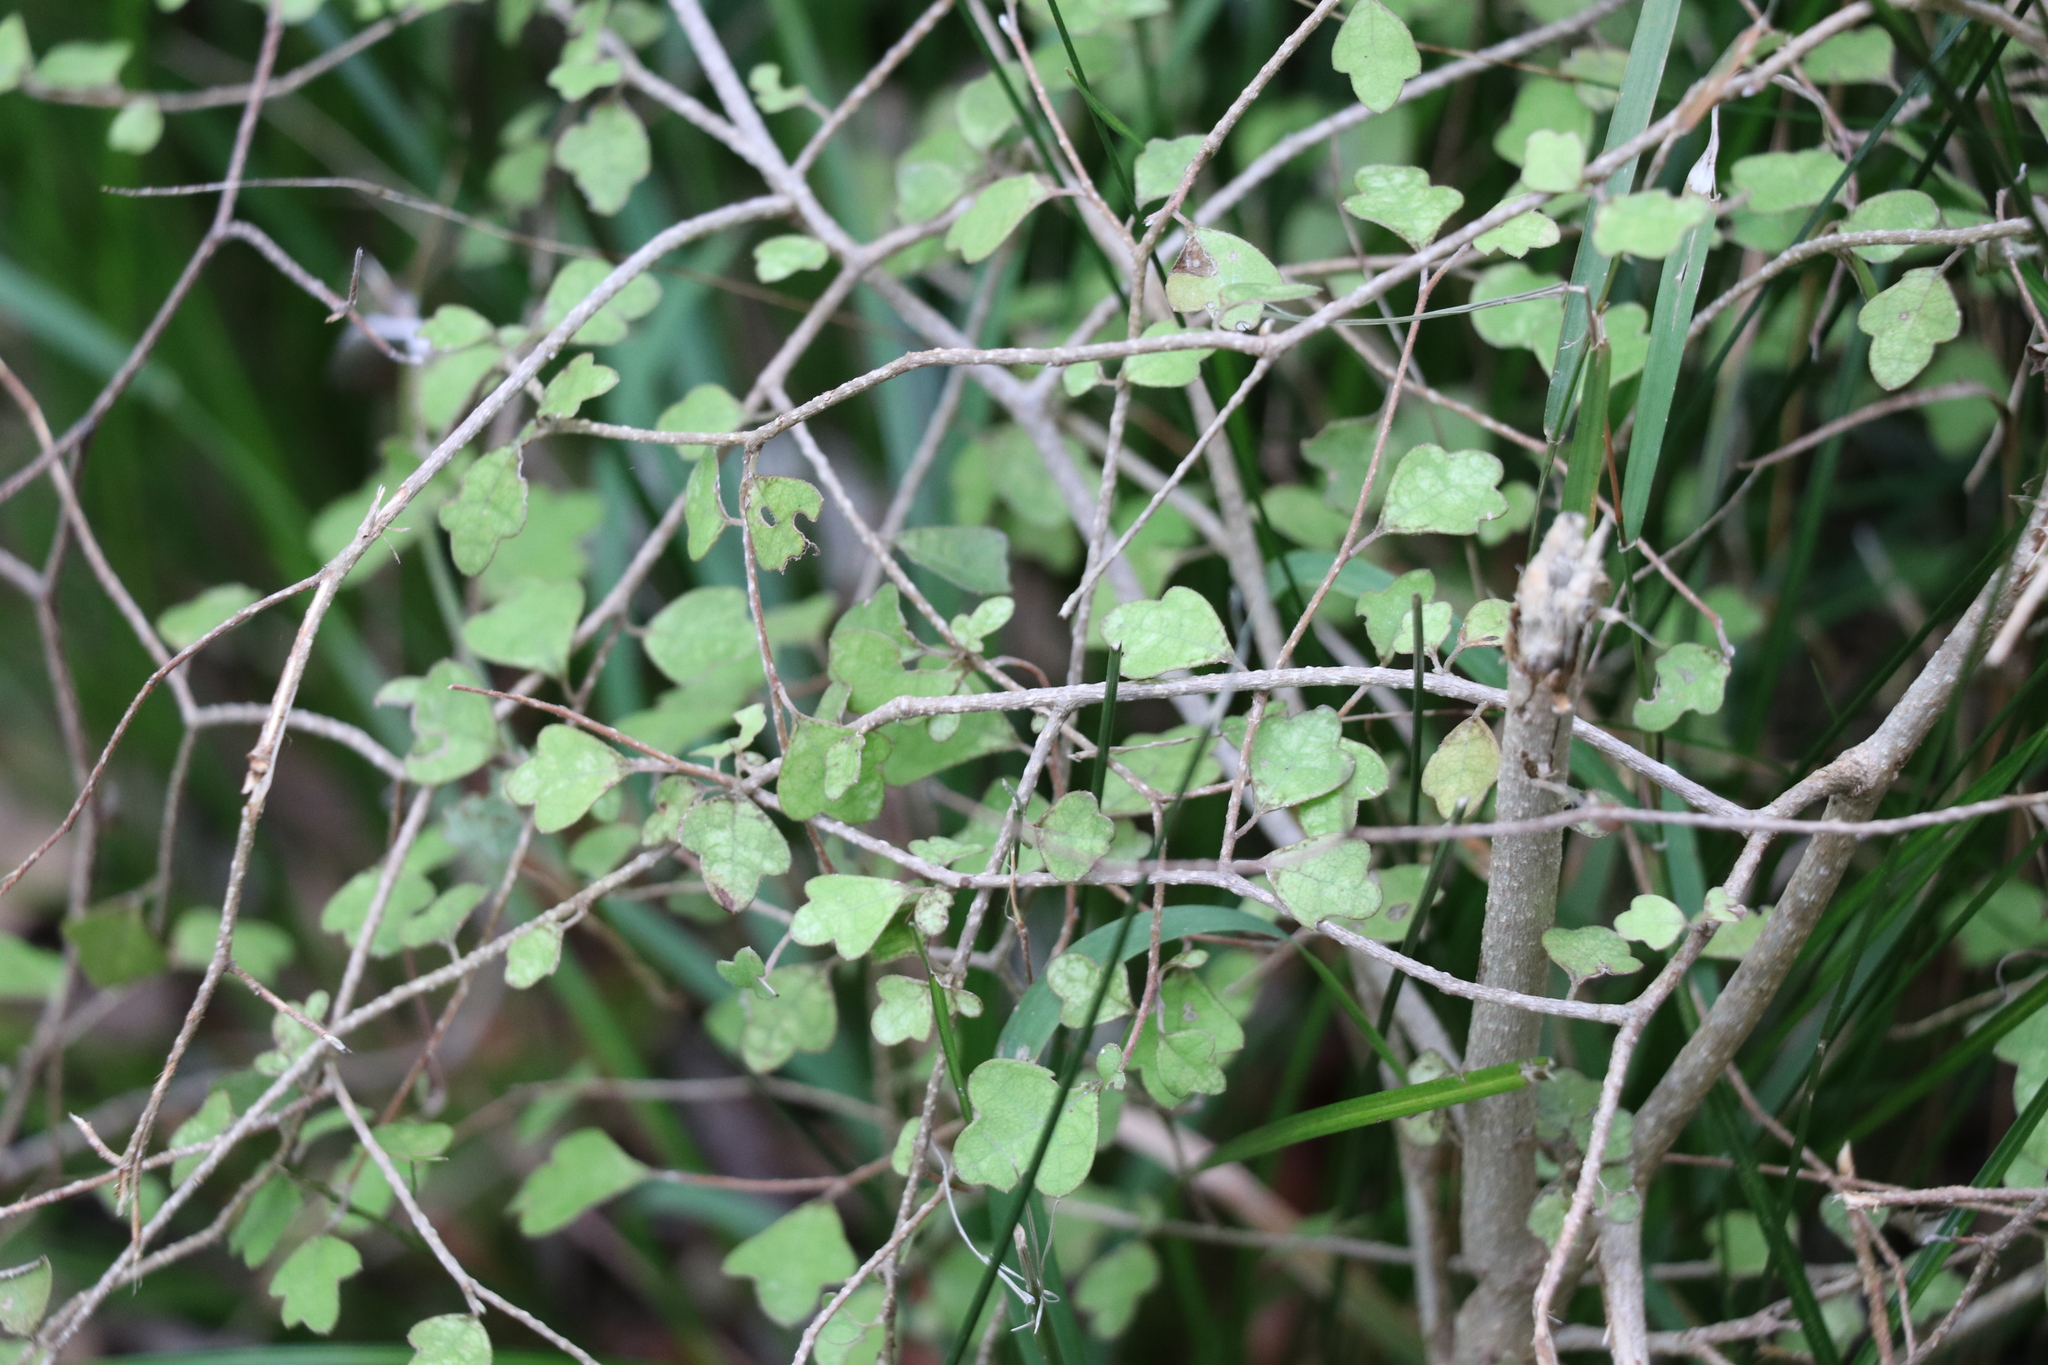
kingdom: Plantae
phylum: Tracheophyta
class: Magnoliopsida
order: Apiales
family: Pennantiaceae
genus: Pennantia
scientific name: Pennantia corymbosa
